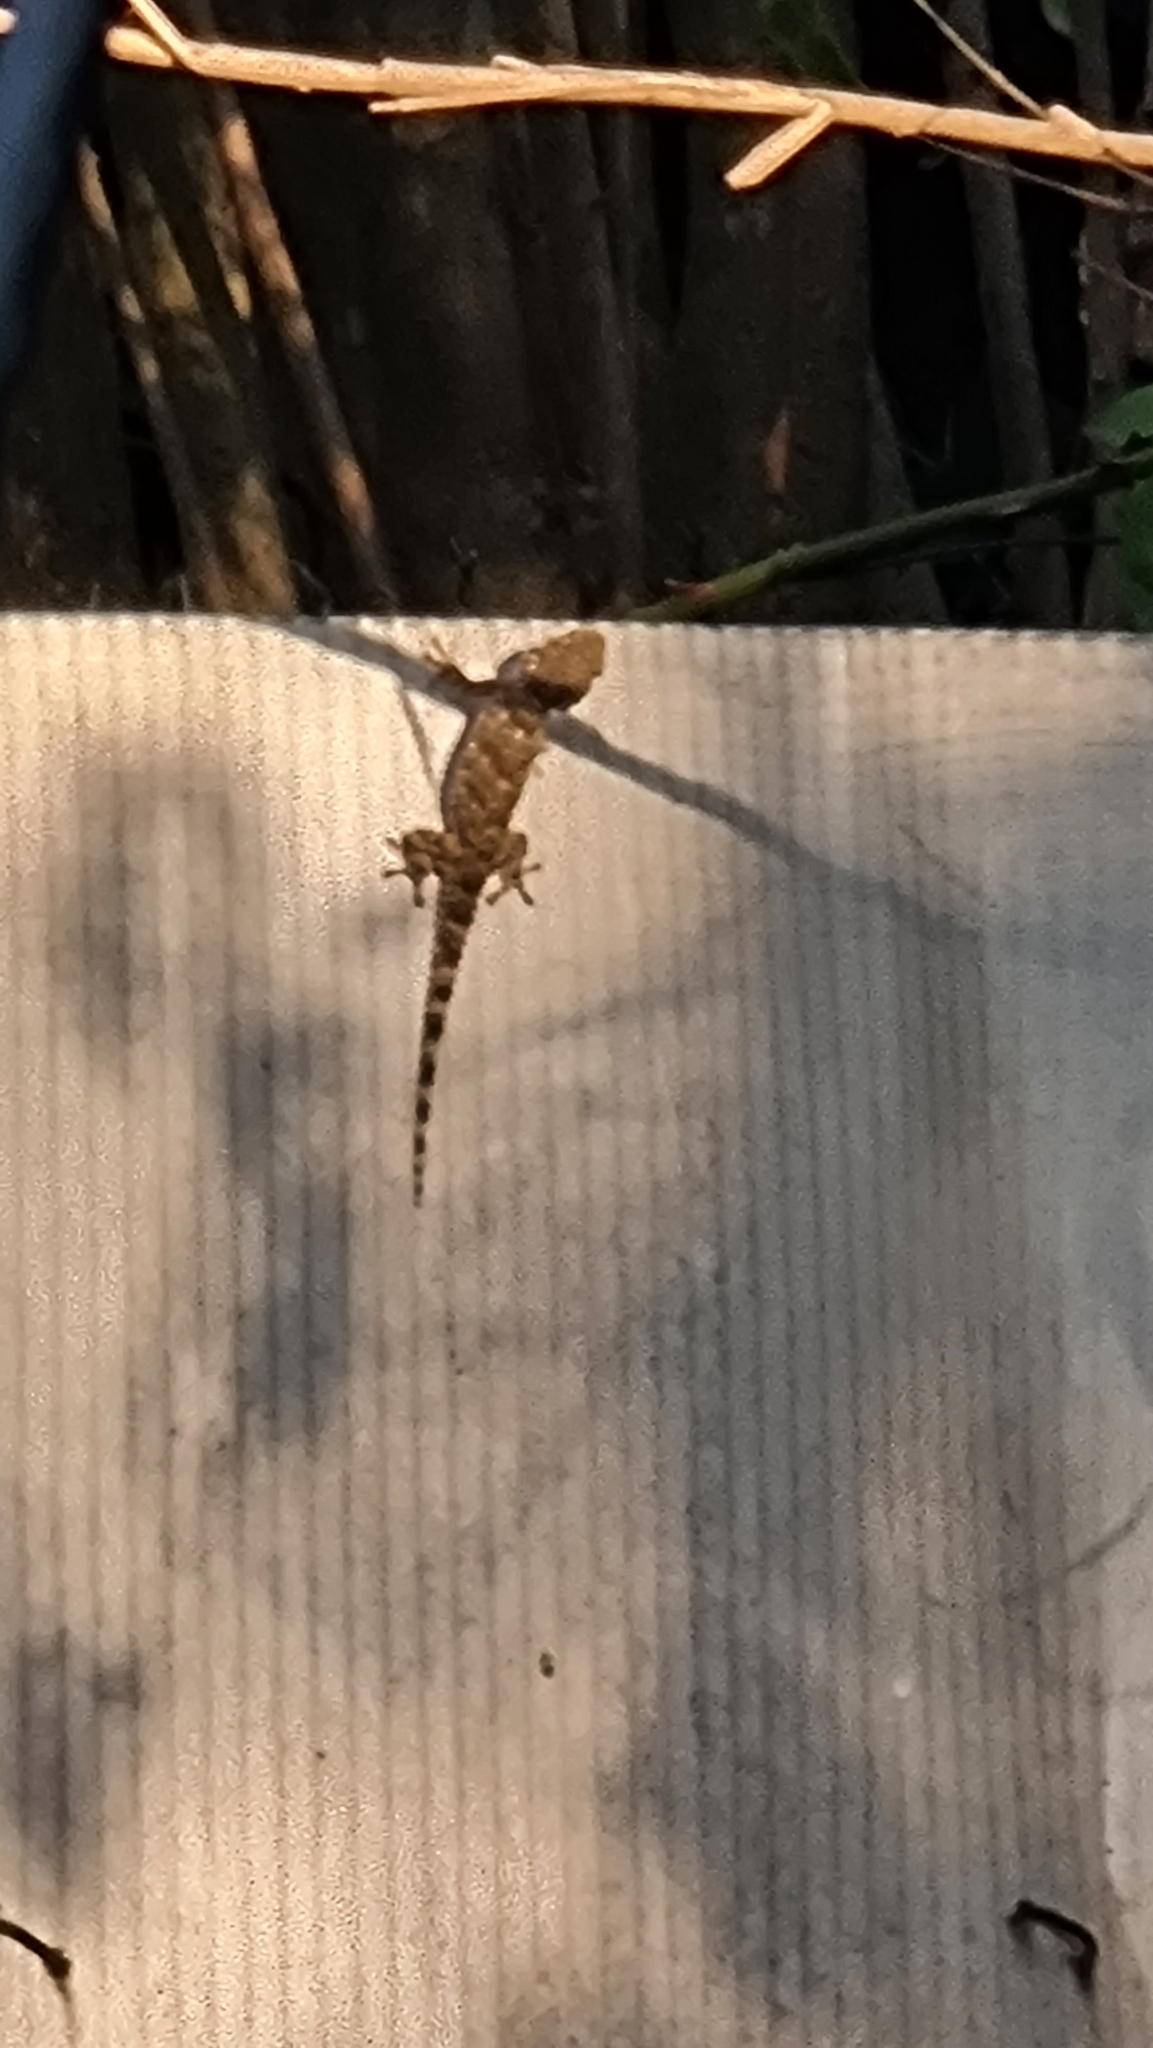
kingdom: Animalia
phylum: Chordata
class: Squamata
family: Phyllodactylidae
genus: Tarentola
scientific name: Tarentola mauritanica
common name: Moorish gecko
